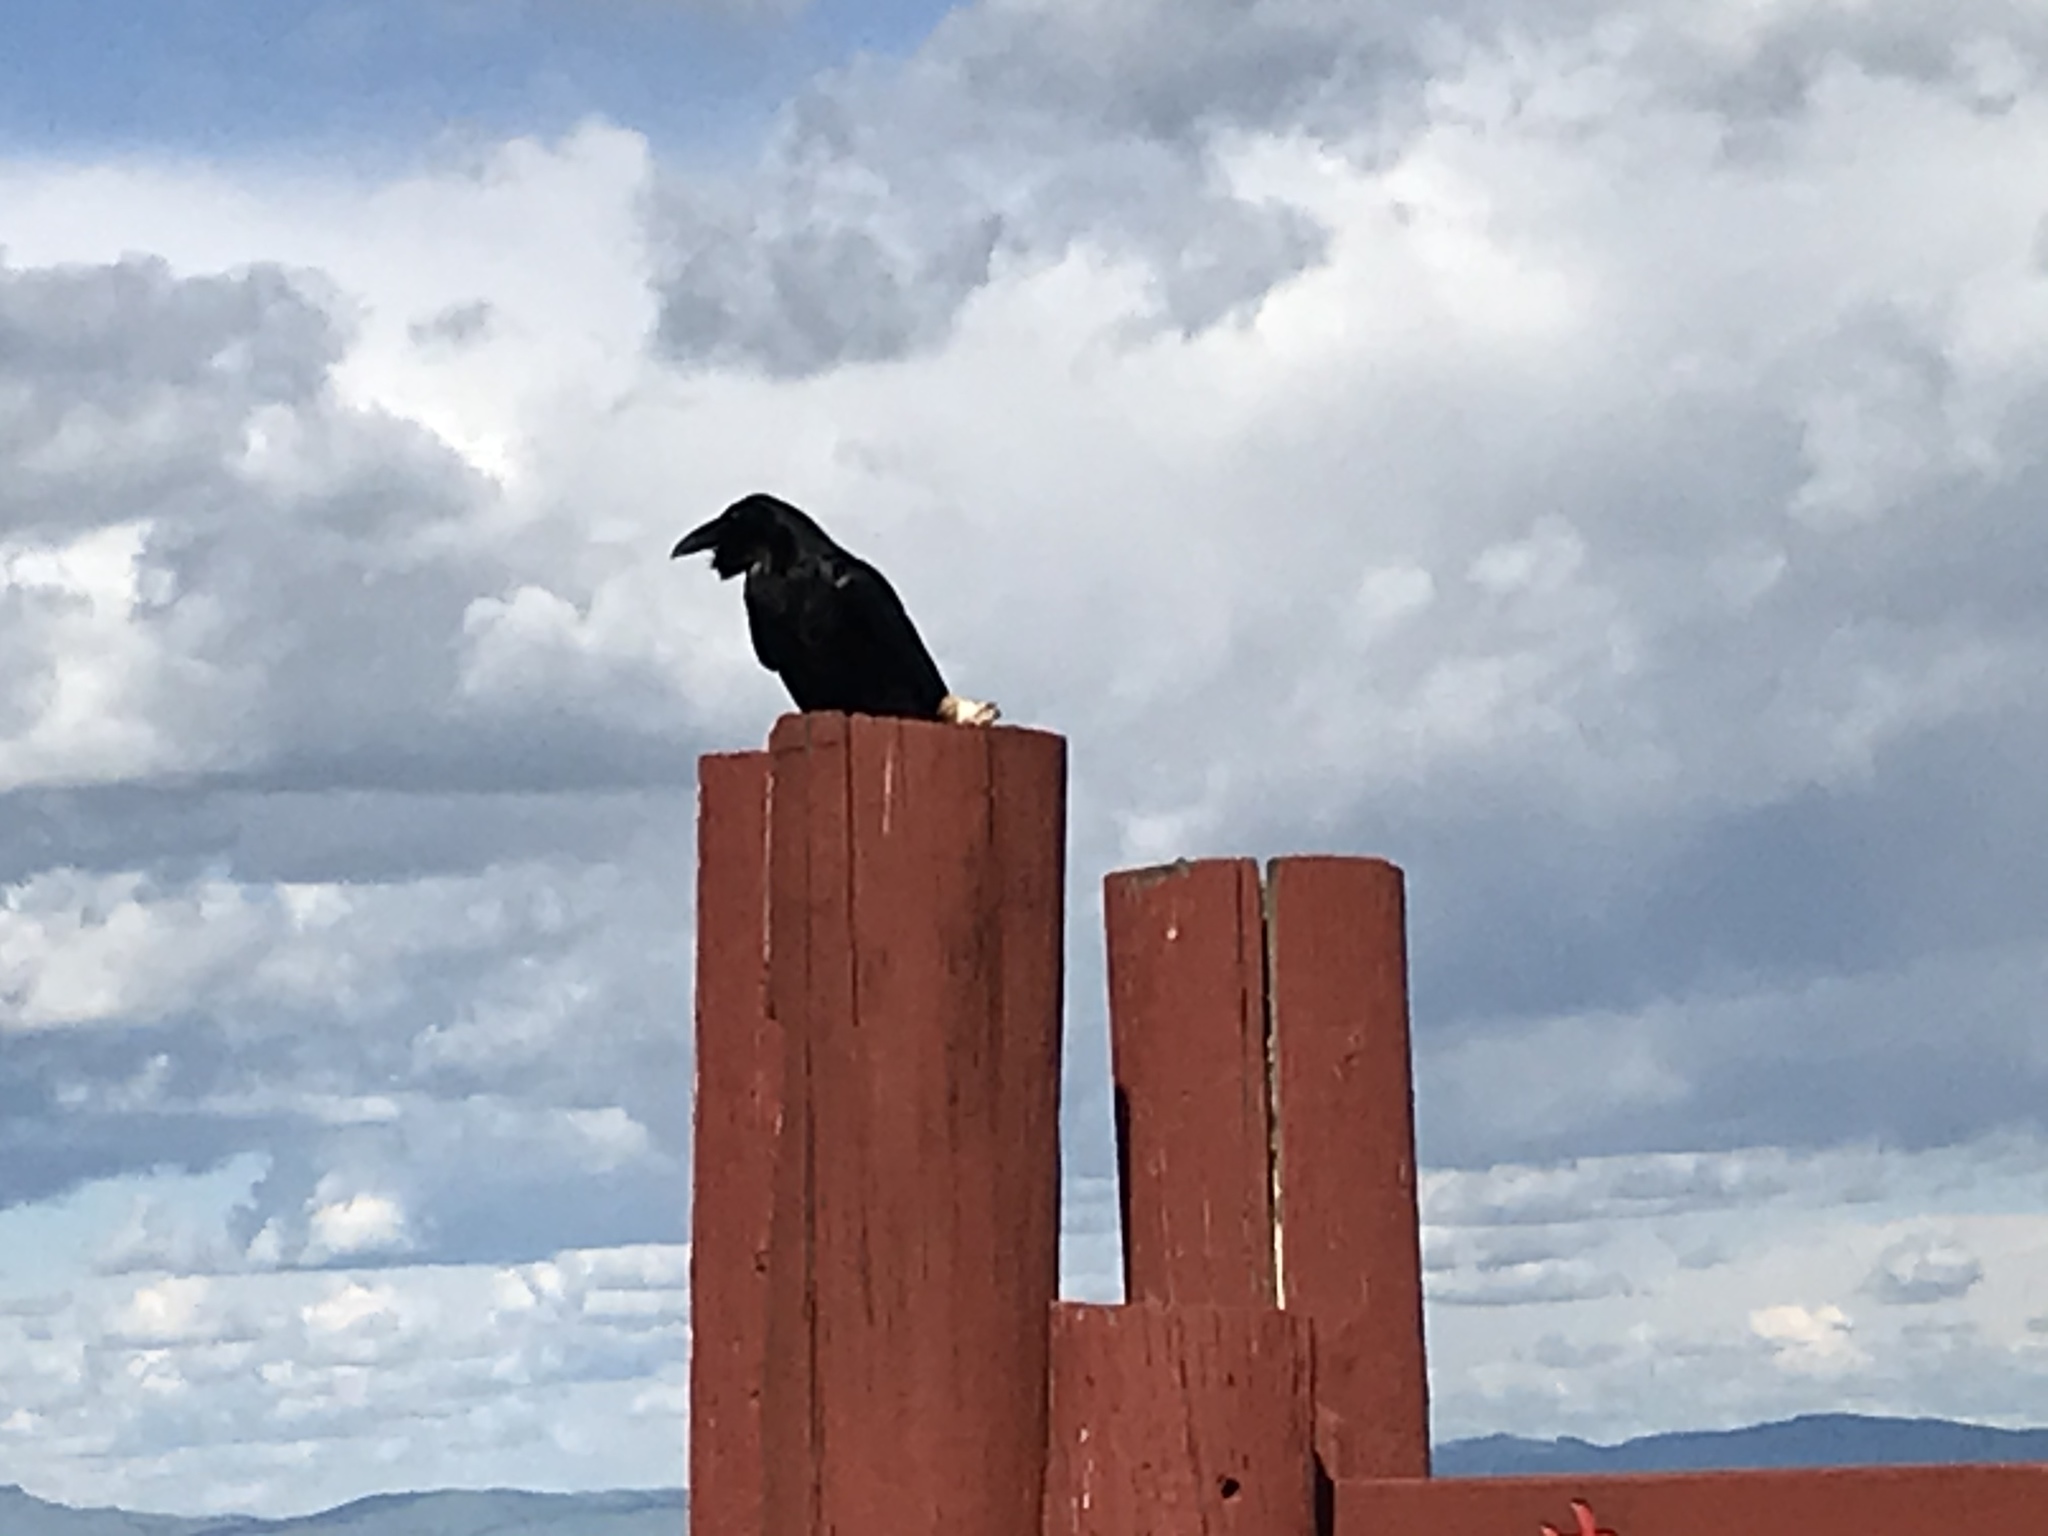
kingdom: Animalia
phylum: Chordata
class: Aves
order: Passeriformes
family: Corvidae
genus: Corvus
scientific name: Corvus corax
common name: Common raven
